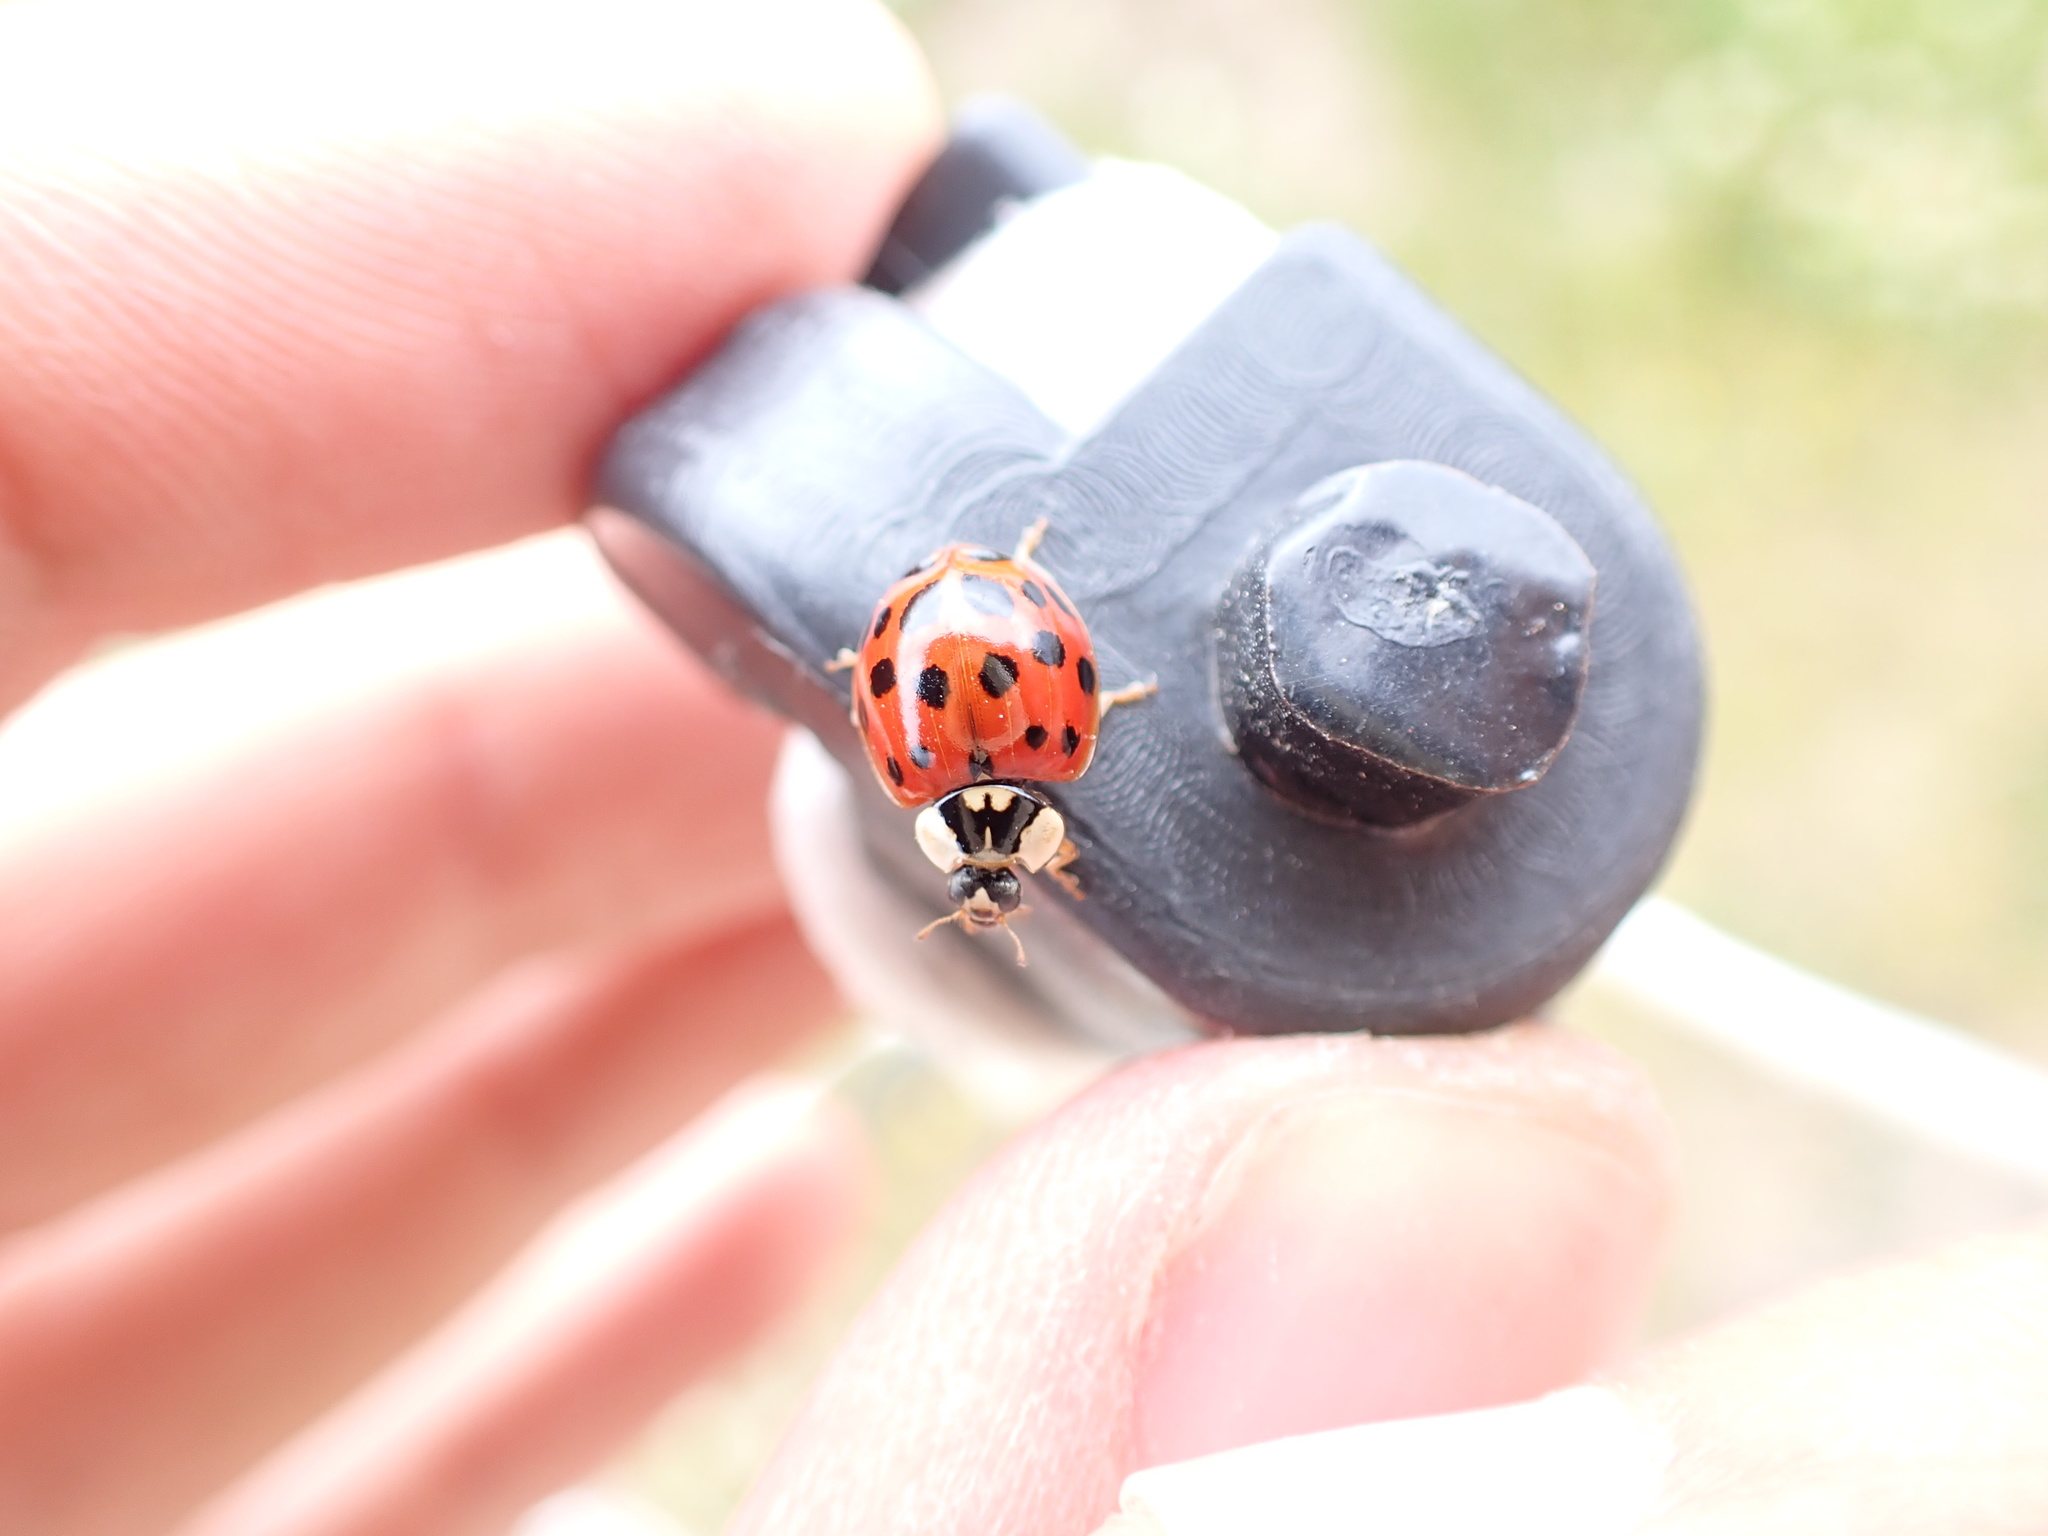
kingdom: Animalia
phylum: Arthropoda
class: Insecta
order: Coleoptera
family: Coccinellidae
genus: Harmonia
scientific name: Harmonia axyridis
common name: Harlequin ladybird
